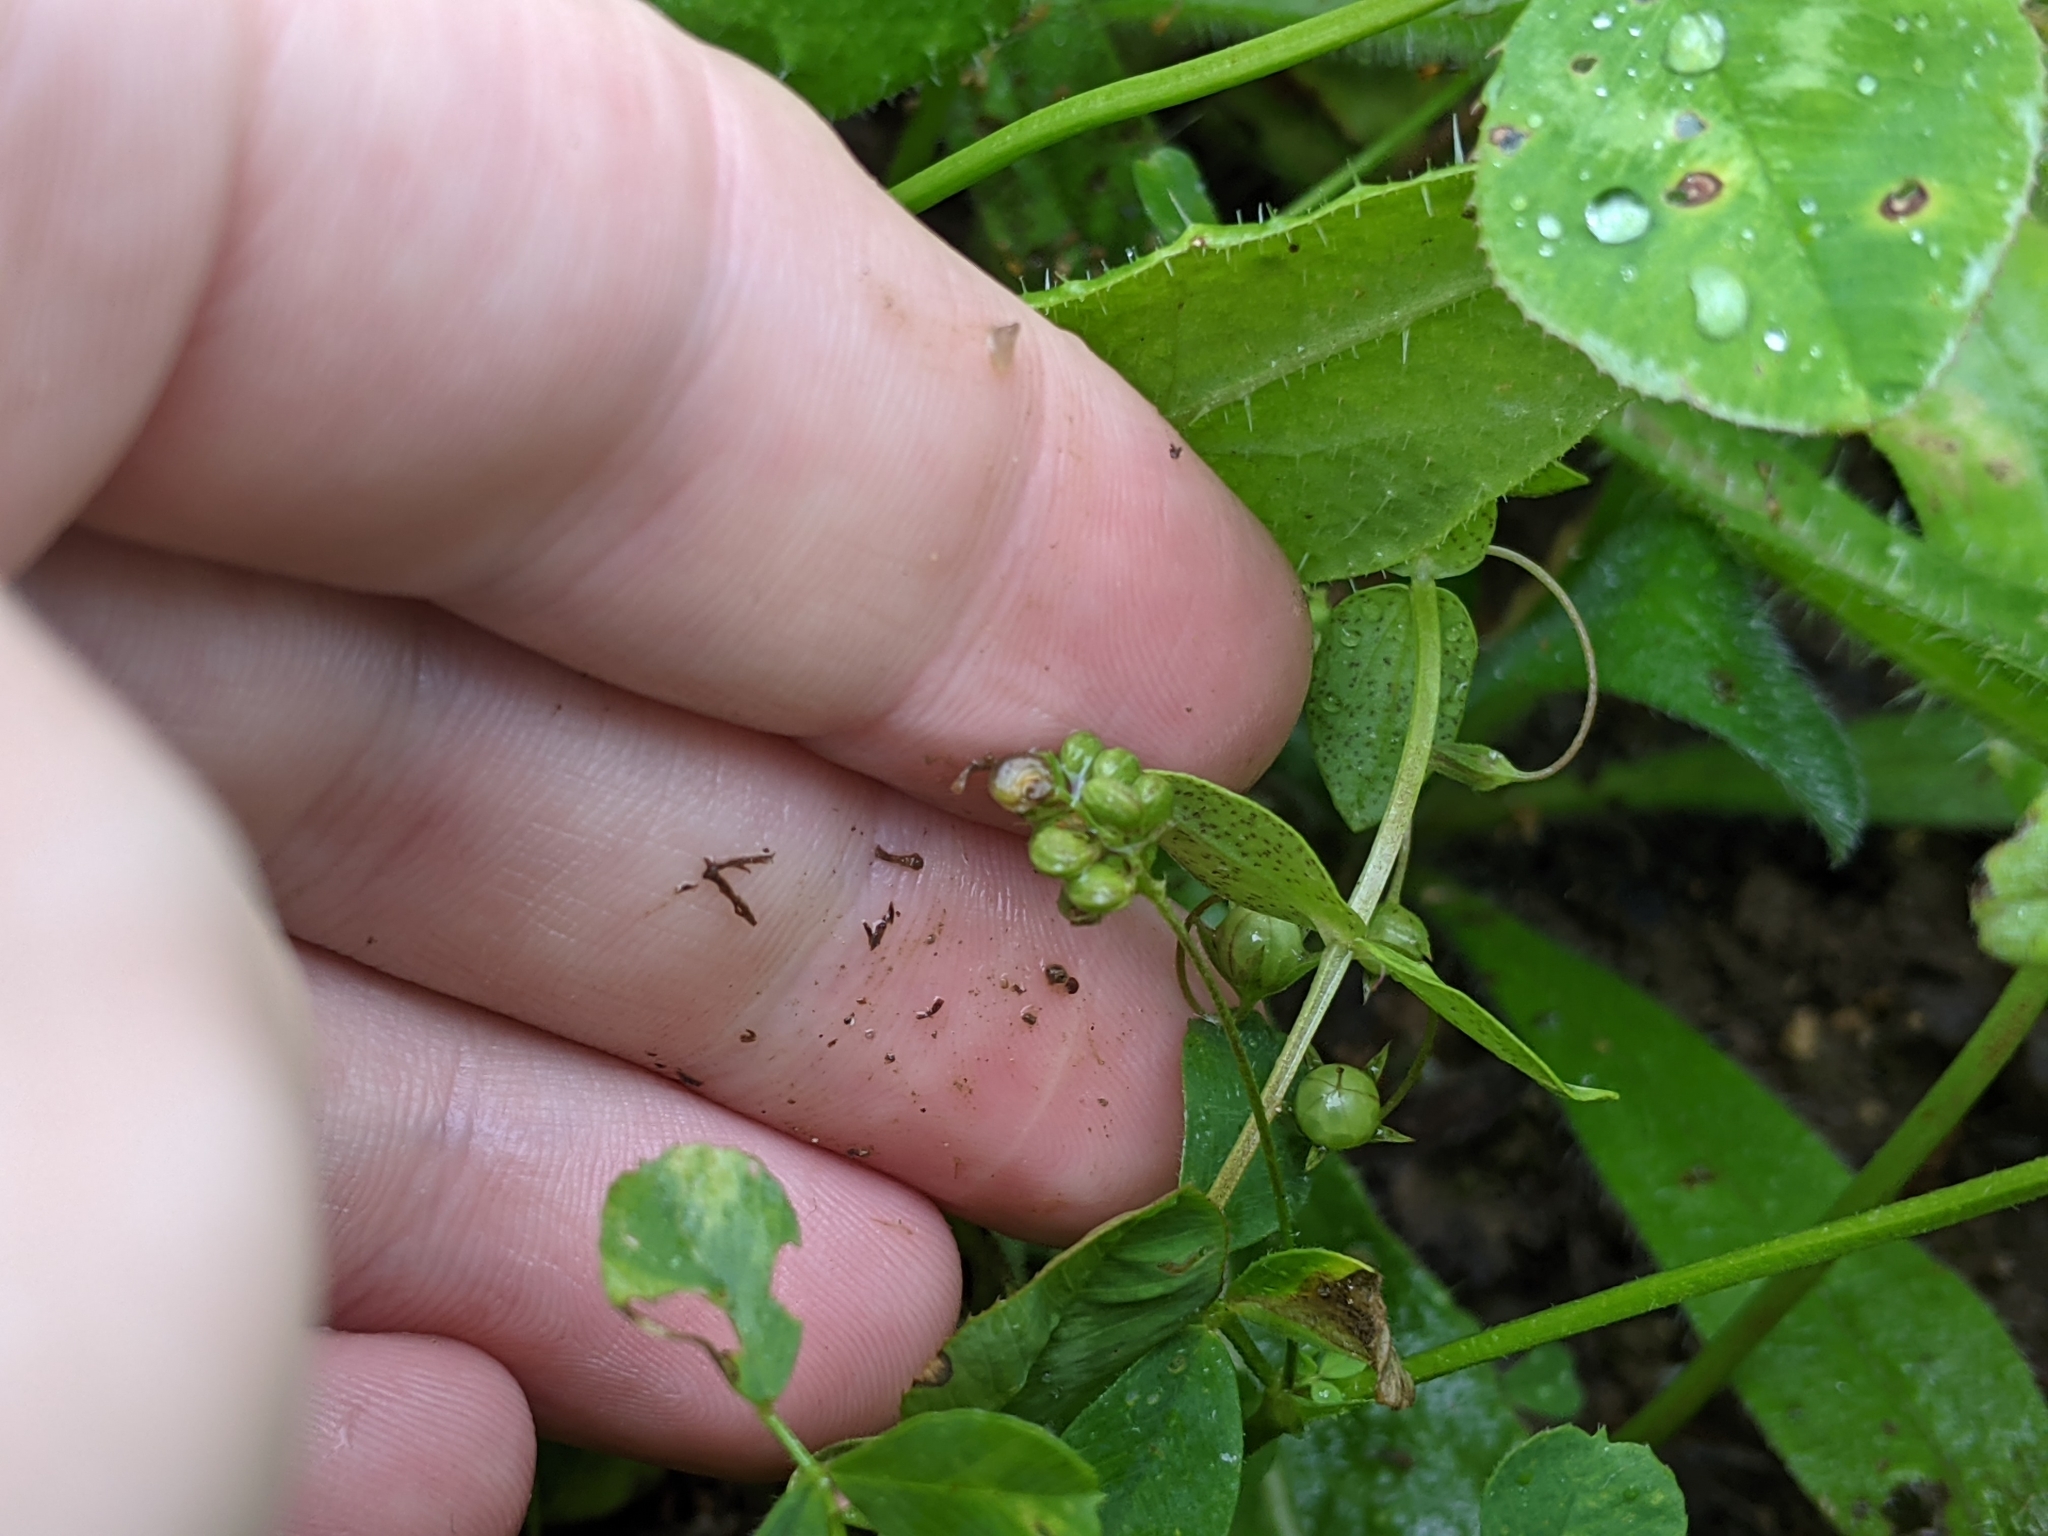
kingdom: Plantae
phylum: Tracheophyta
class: Magnoliopsida
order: Fabales
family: Fabaceae
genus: Medicago
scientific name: Medicago lupulina
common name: Black medick
